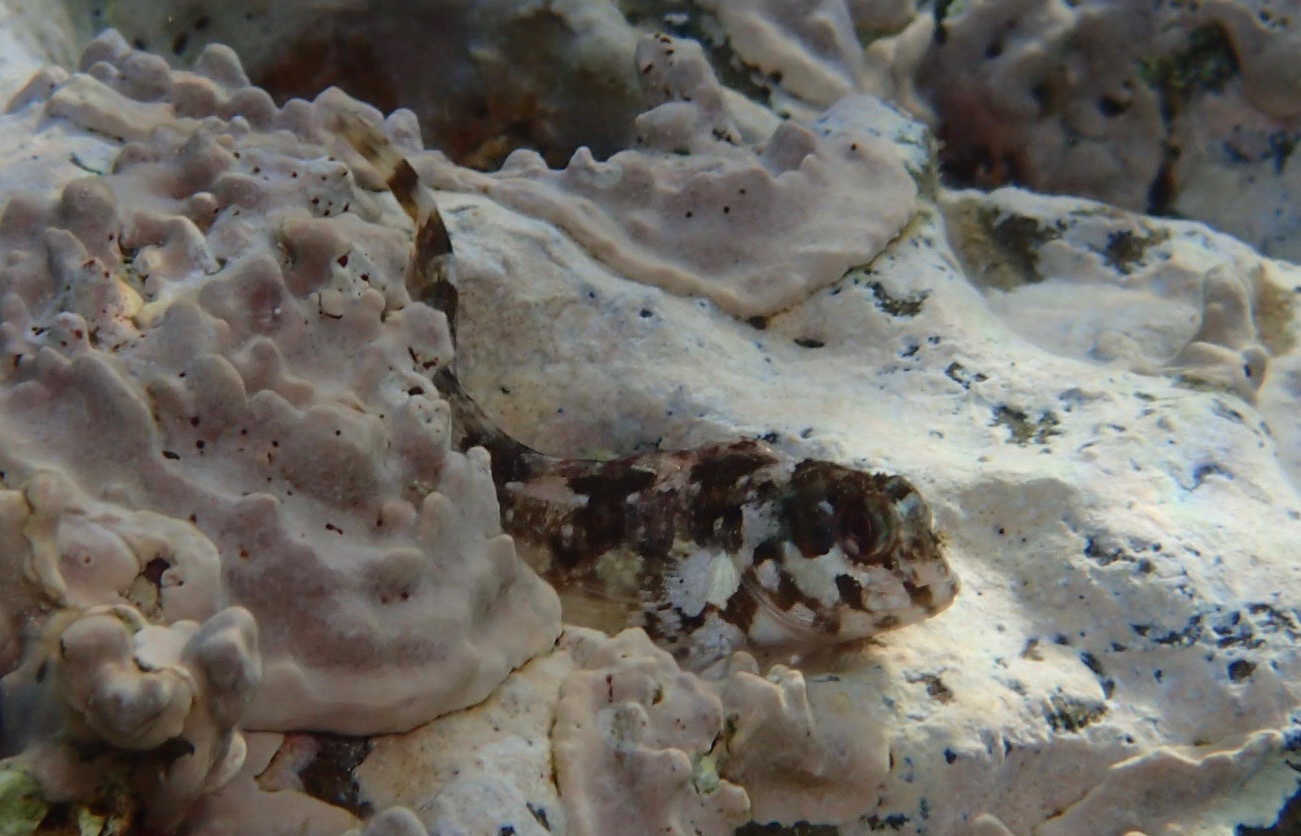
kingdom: Animalia
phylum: Chordata
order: Perciformes
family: Blenniidae
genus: Lipophrys
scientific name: Lipophrys trigloides
